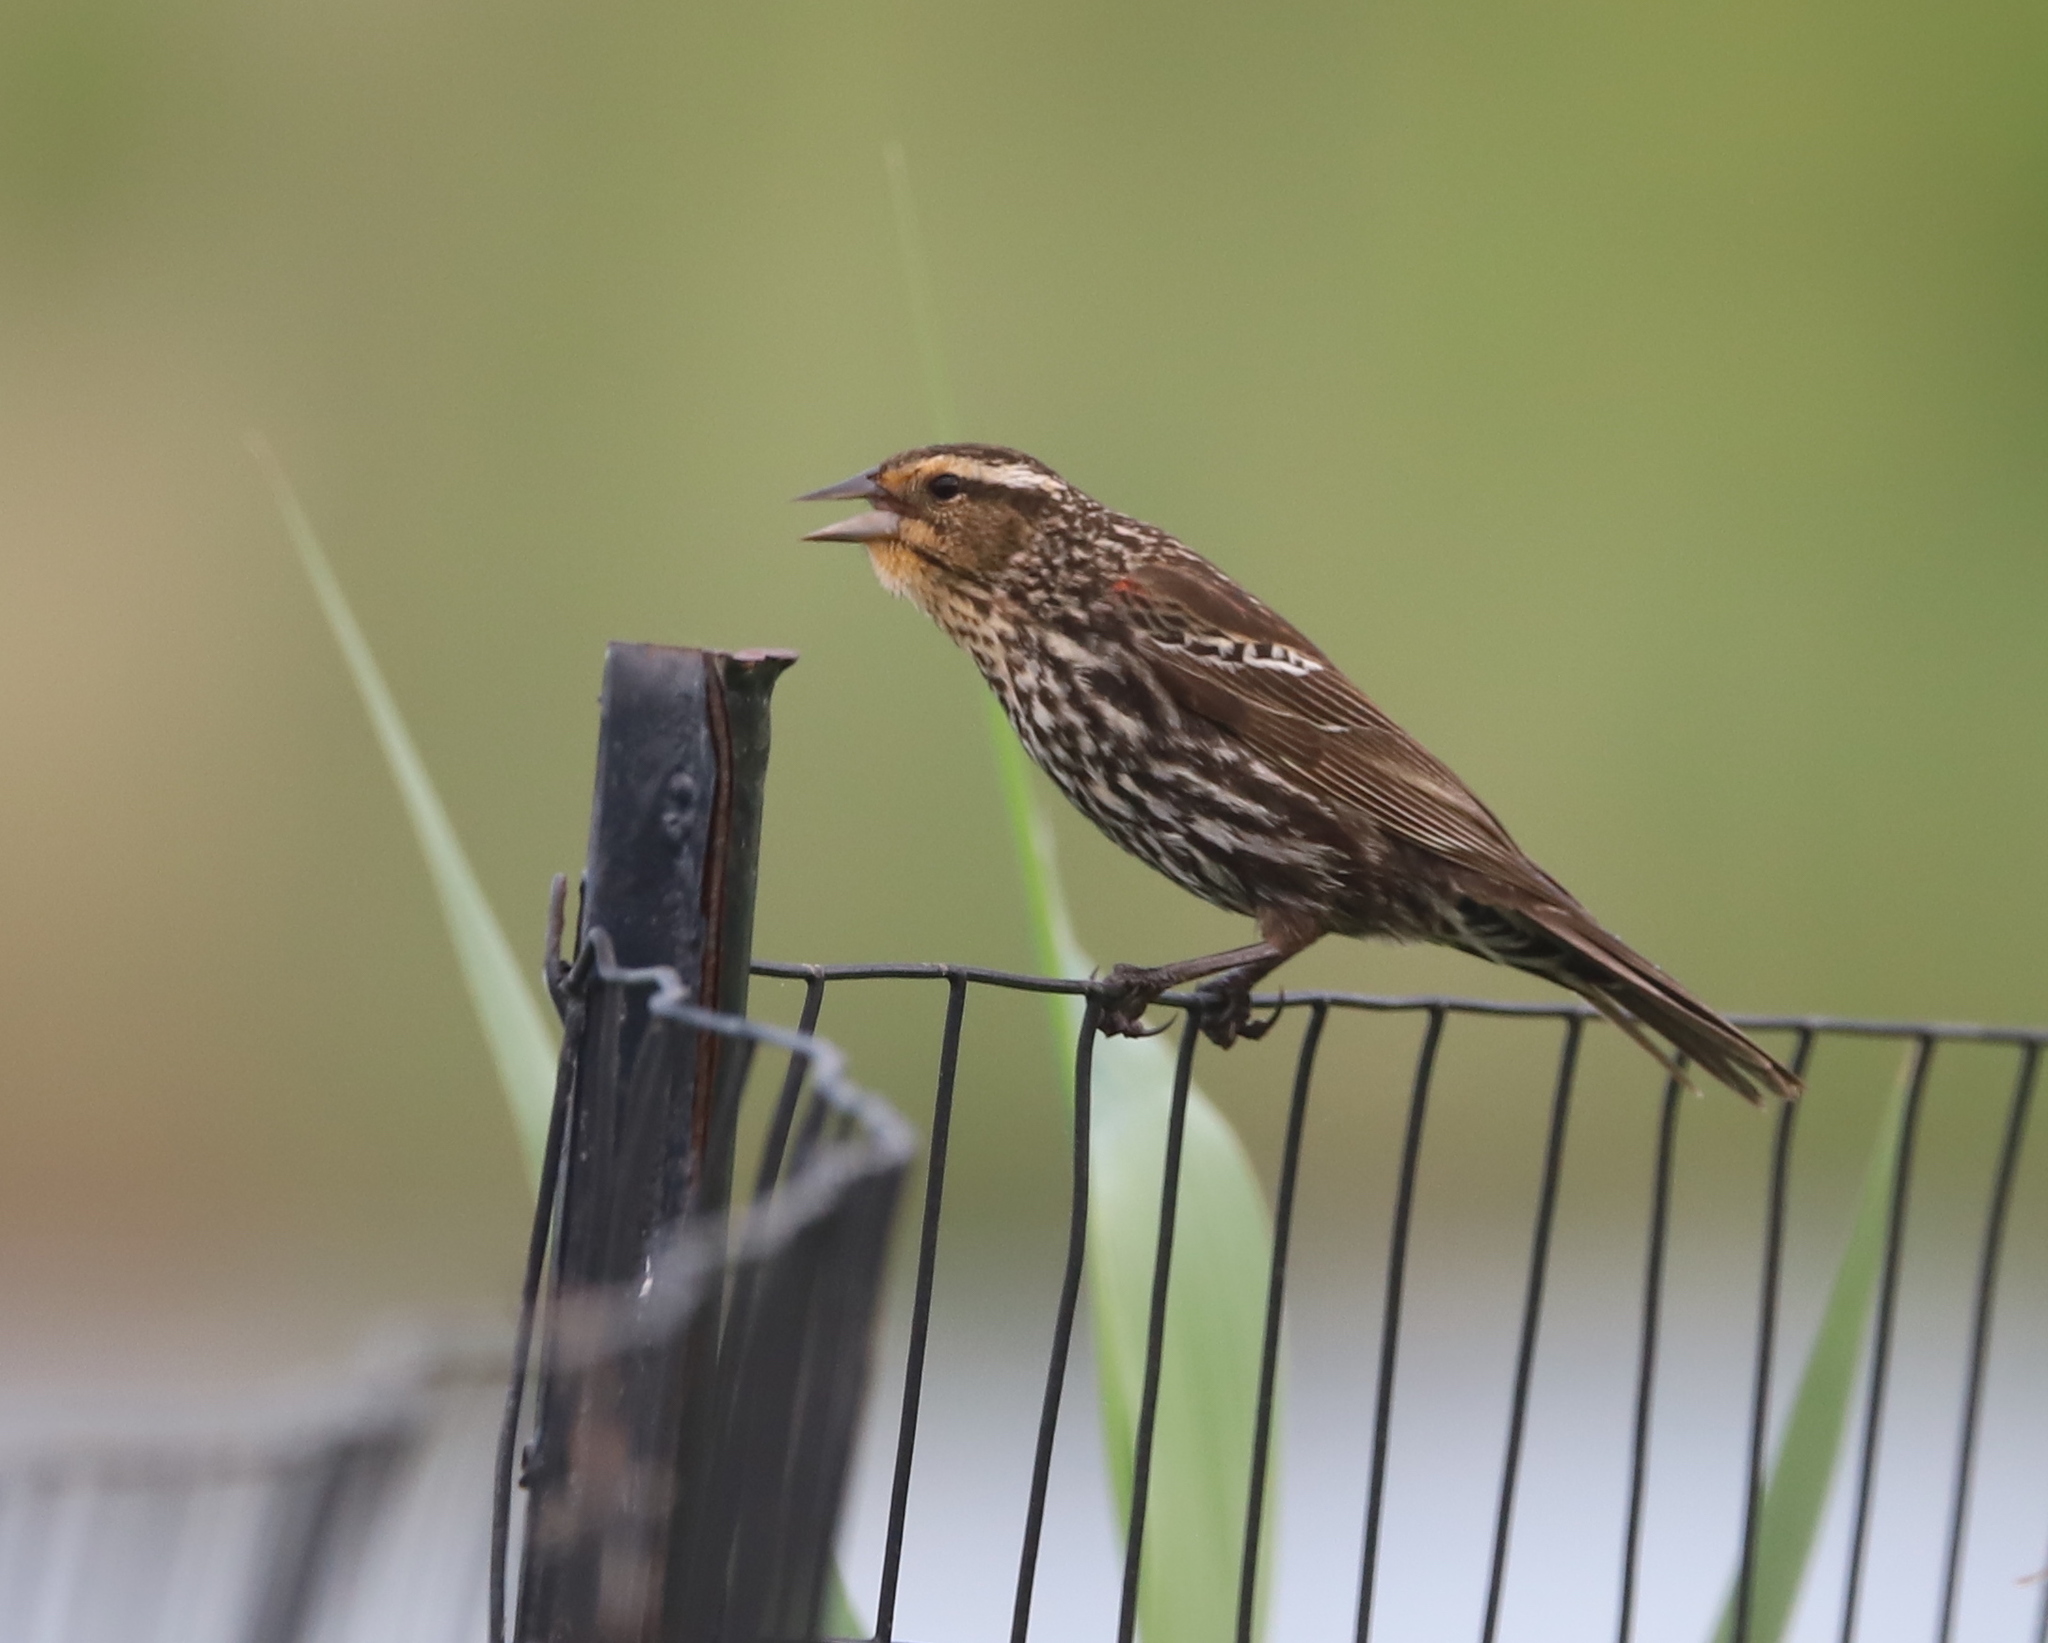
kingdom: Animalia
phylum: Chordata
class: Aves
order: Passeriformes
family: Icteridae
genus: Agelaius
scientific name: Agelaius phoeniceus
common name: Red-winged blackbird
